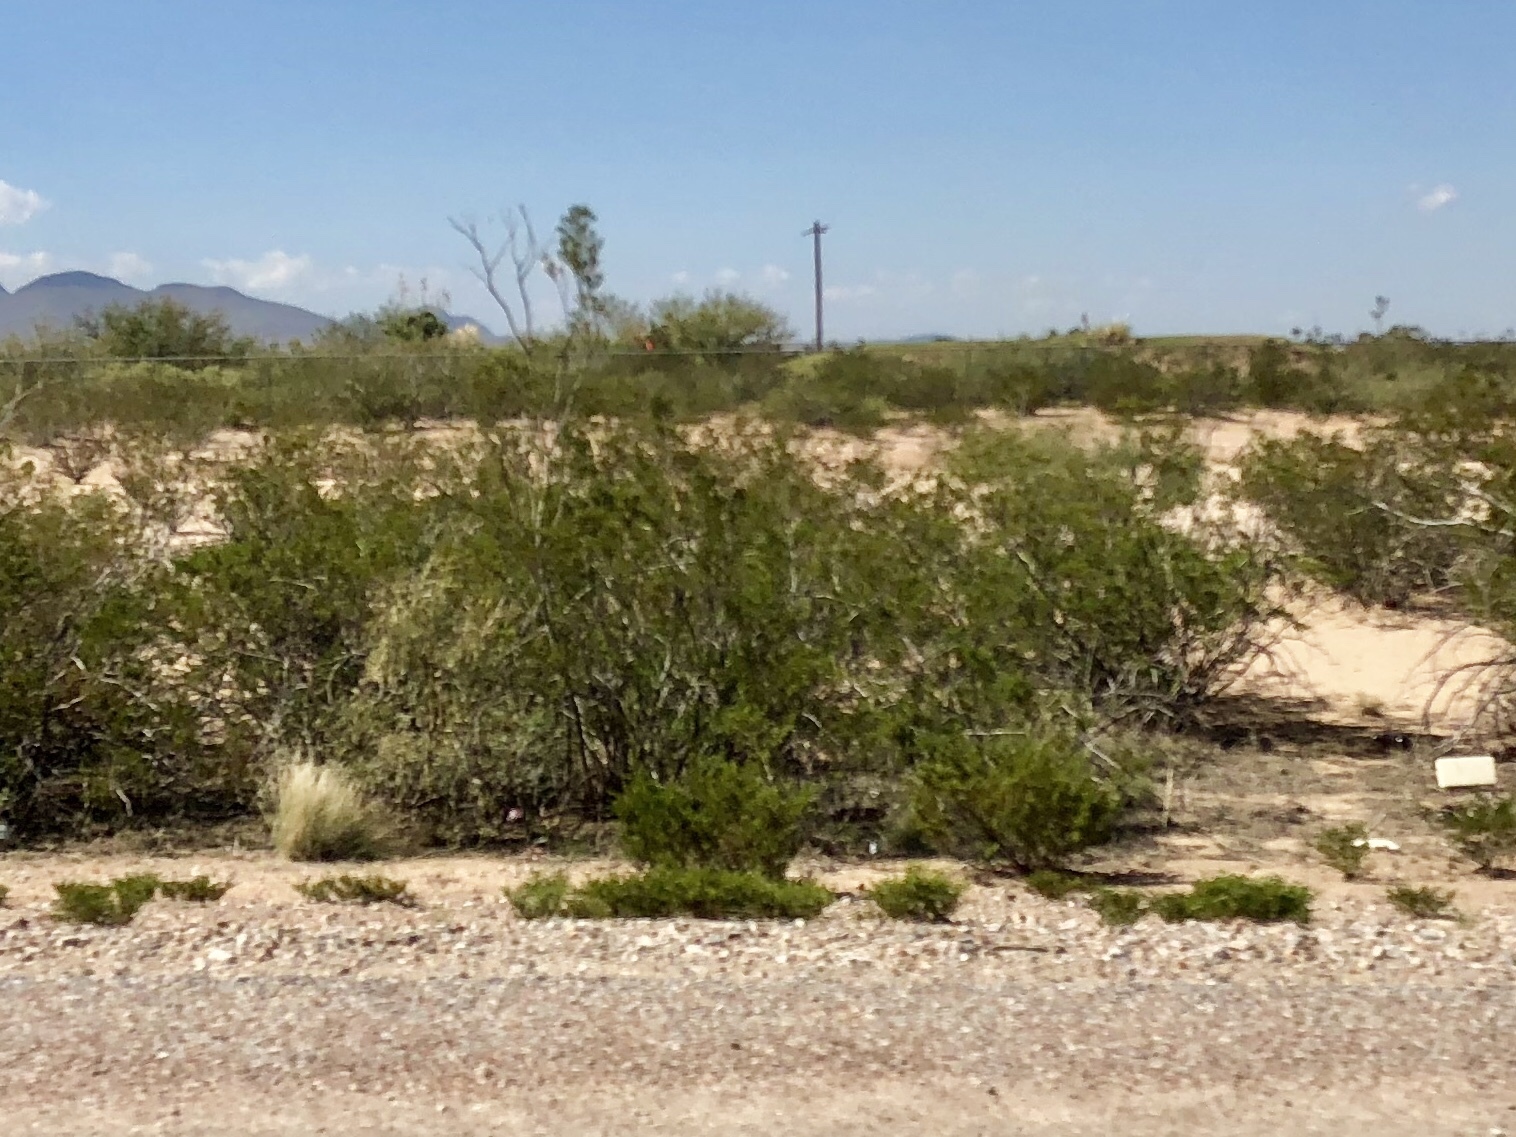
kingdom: Plantae
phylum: Tracheophyta
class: Magnoliopsida
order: Zygophyllales
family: Zygophyllaceae
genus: Larrea
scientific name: Larrea tridentata
